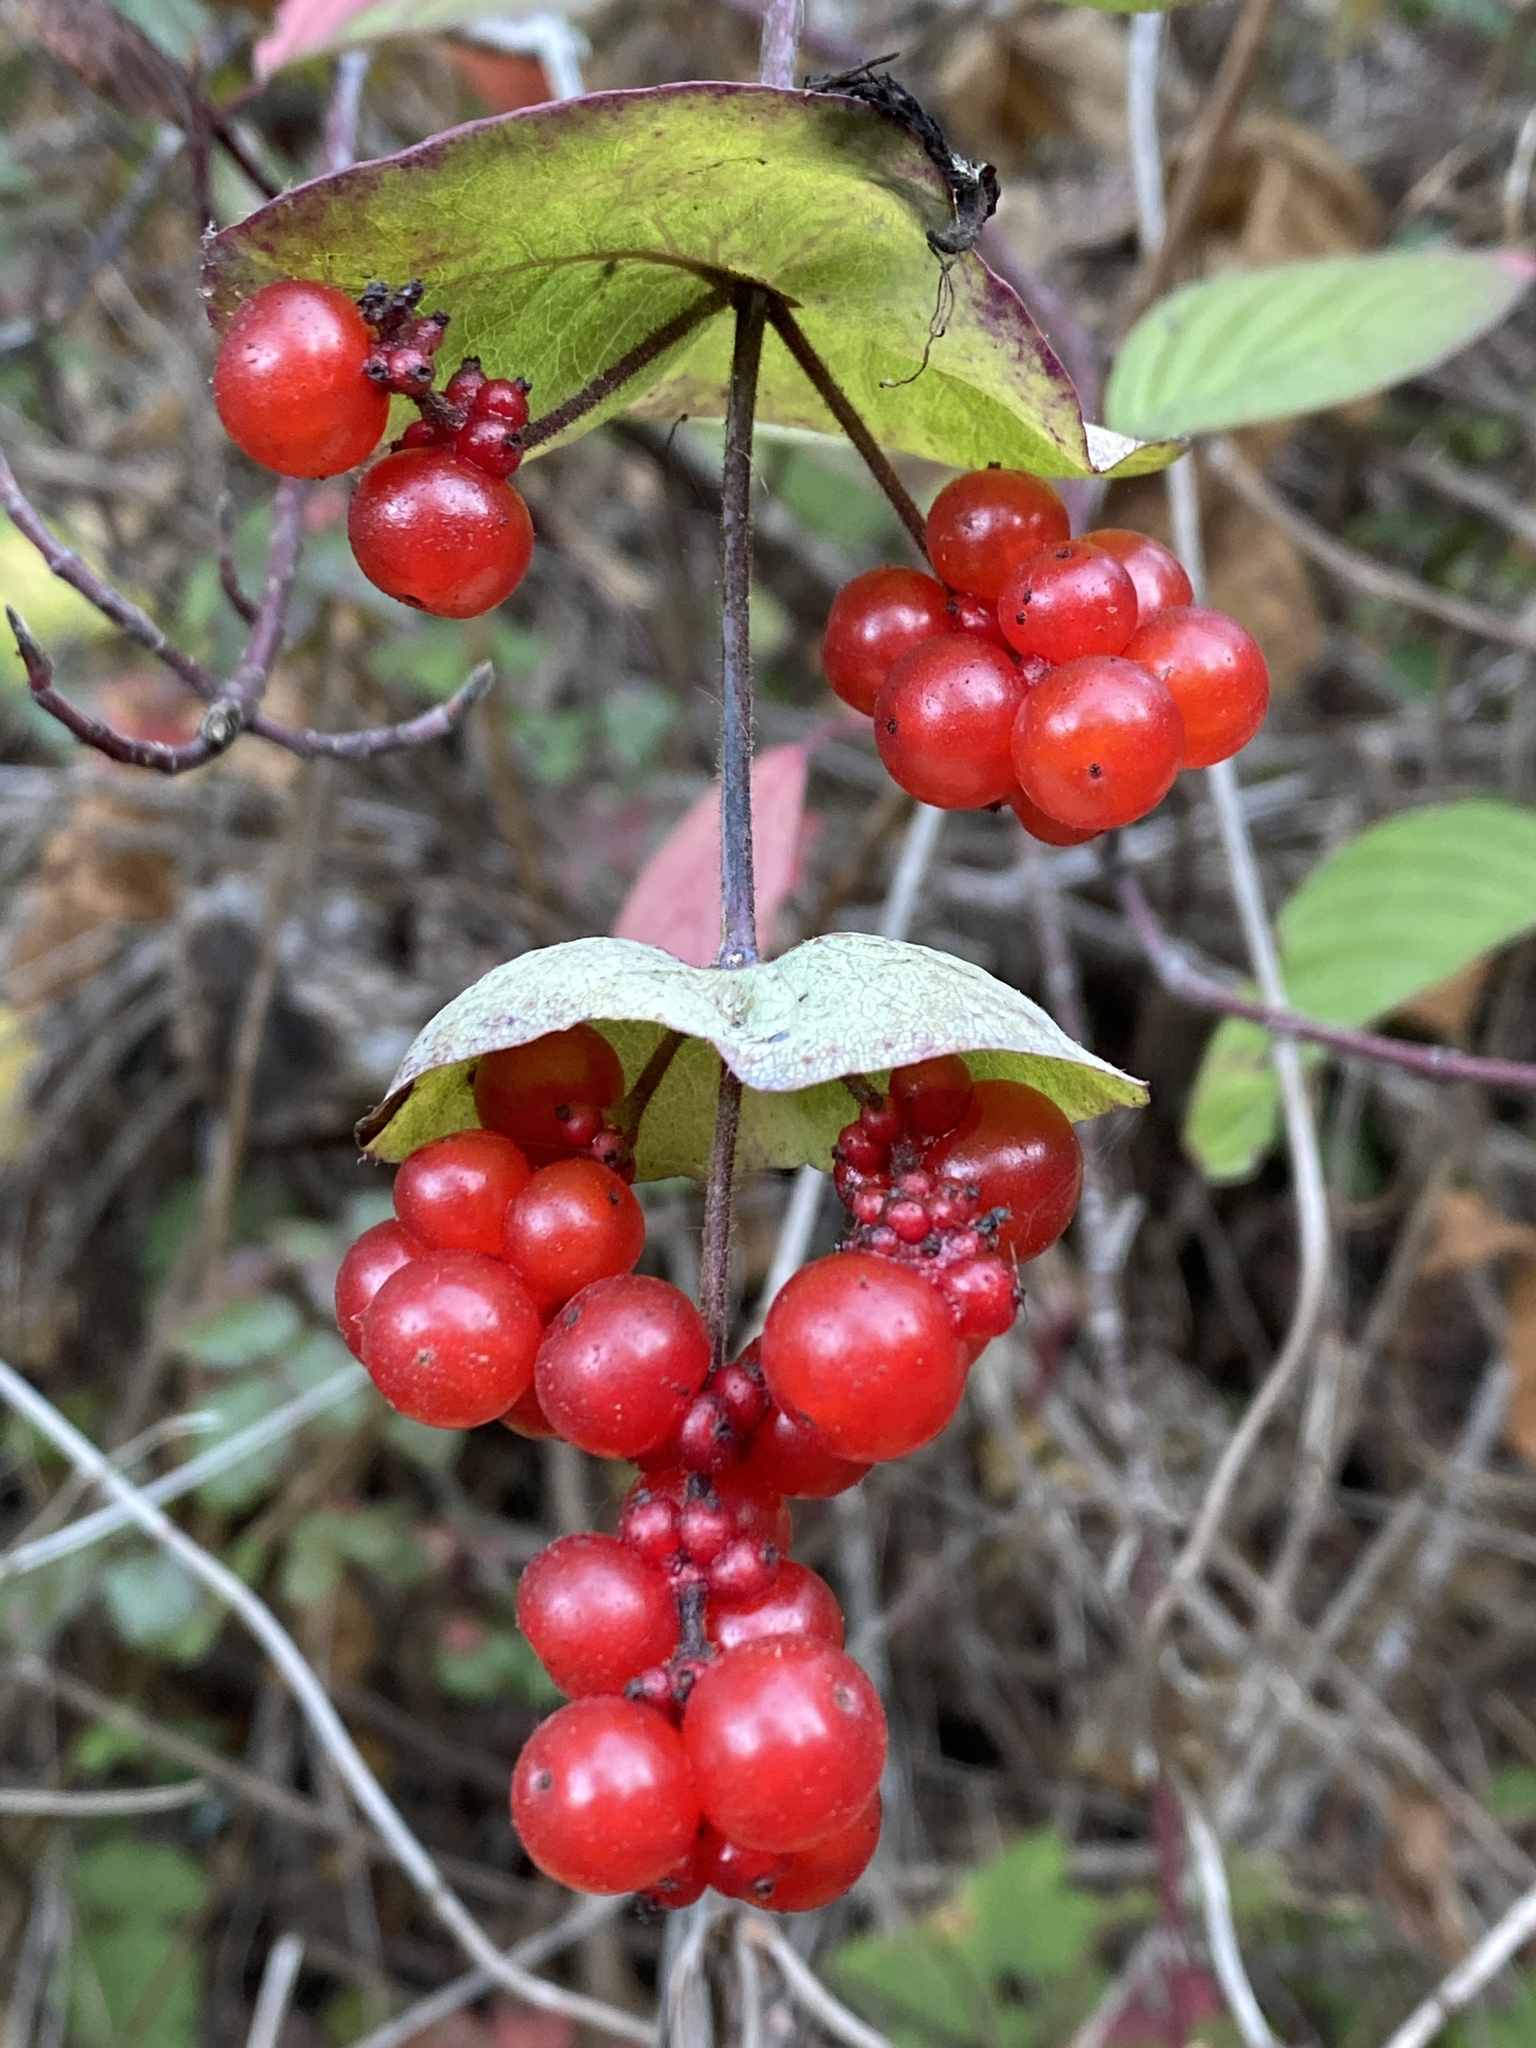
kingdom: Plantae
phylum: Tracheophyta
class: Magnoliopsida
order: Dipsacales
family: Caprifoliaceae
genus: Lonicera
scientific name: Lonicera hispidula
